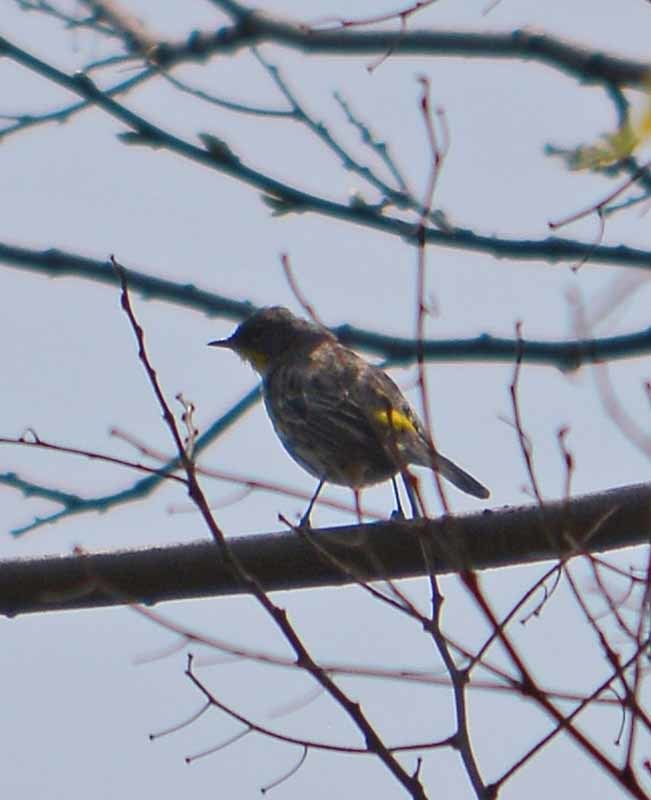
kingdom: Animalia
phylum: Chordata
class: Aves
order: Passeriformes
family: Parulidae
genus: Setophaga
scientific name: Setophaga coronata
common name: Myrtle warbler
